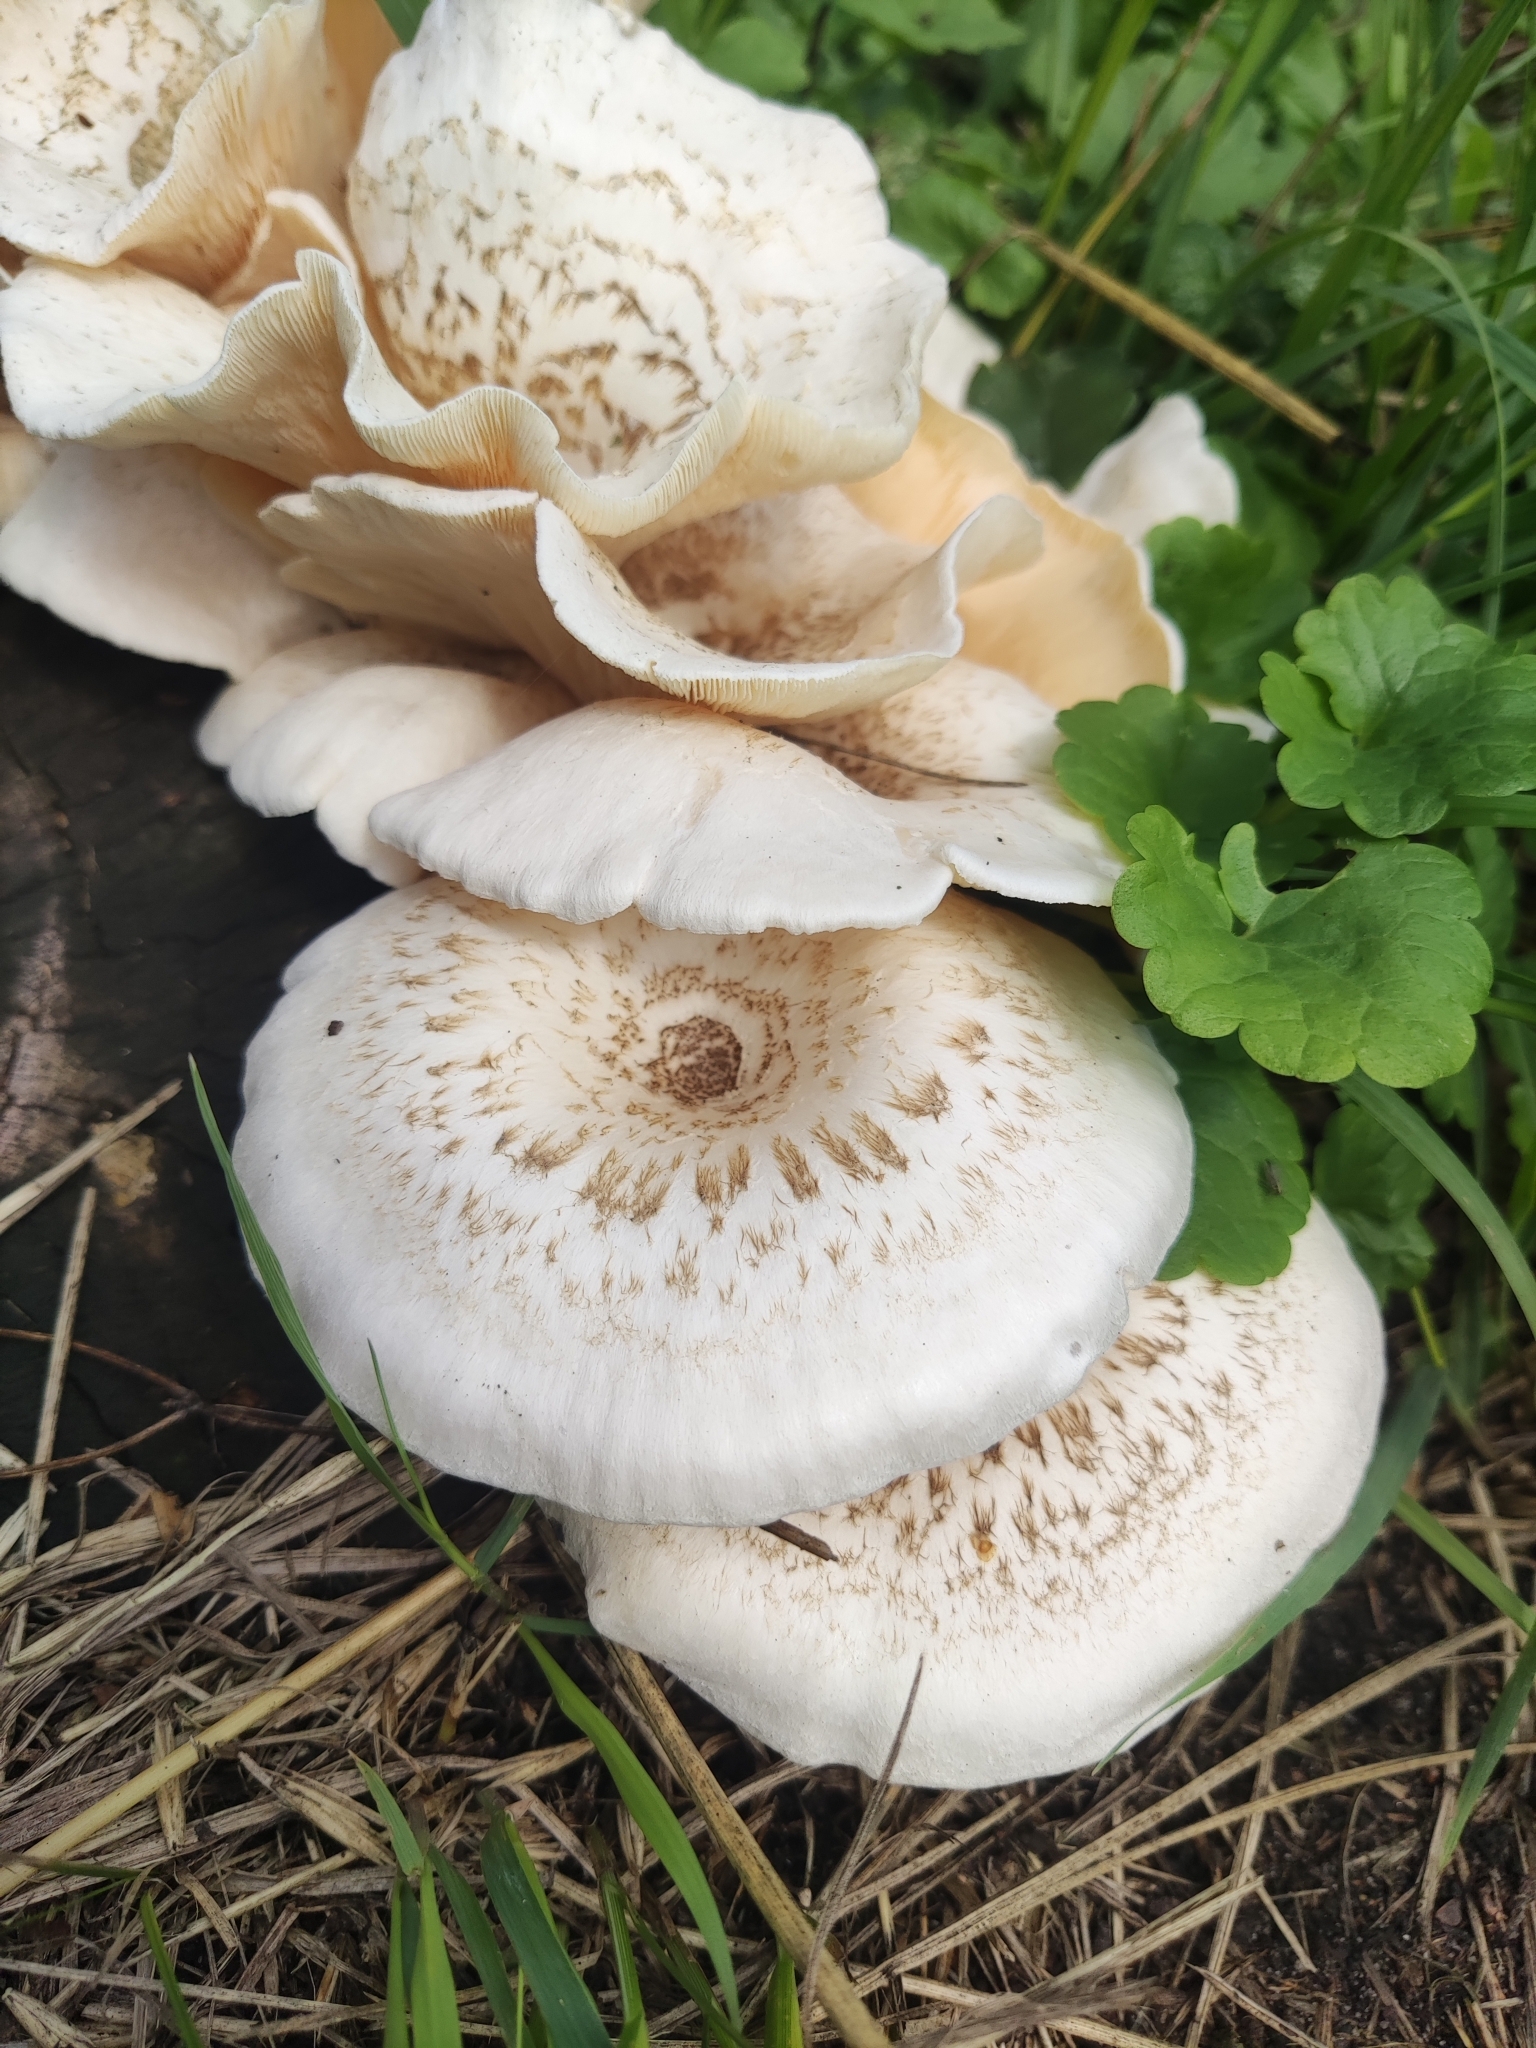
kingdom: Fungi
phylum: Basidiomycota
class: Agaricomycetes
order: Polyporales
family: Polyporaceae
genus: Lentinus
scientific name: Lentinus tigrinus
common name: Tiger sawgill
